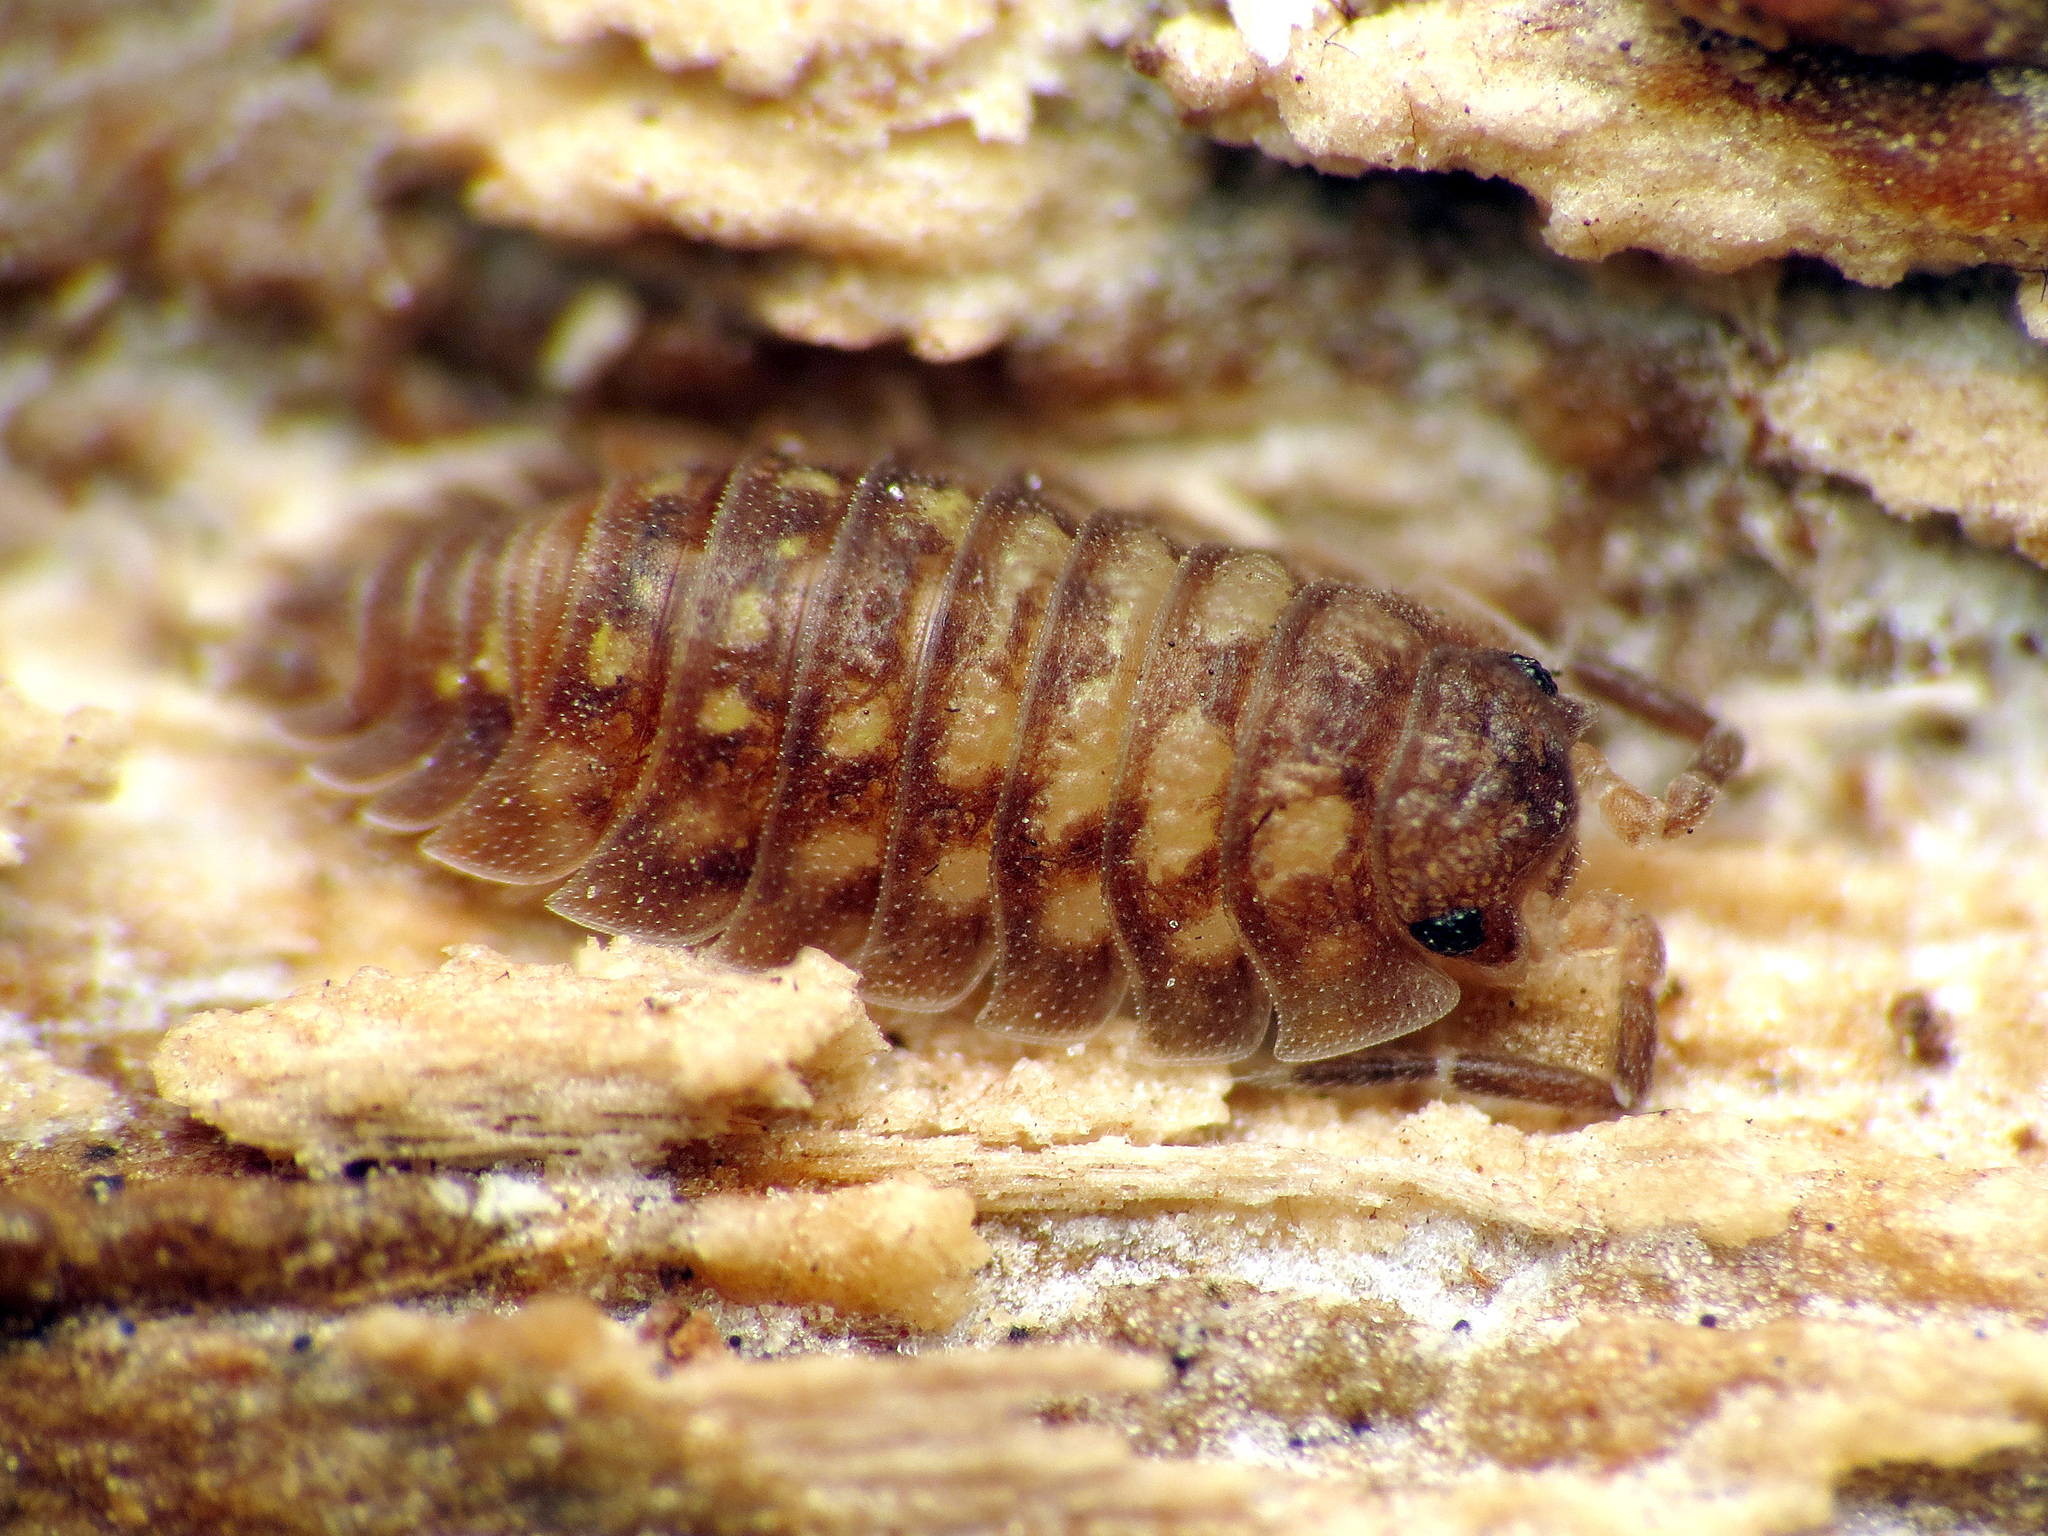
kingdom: Animalia
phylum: Arthropoda
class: Malacostraca
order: Isopoda
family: Oniscidae
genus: Oniscus
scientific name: Oniscus asellus
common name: Common shiny woodlouse
